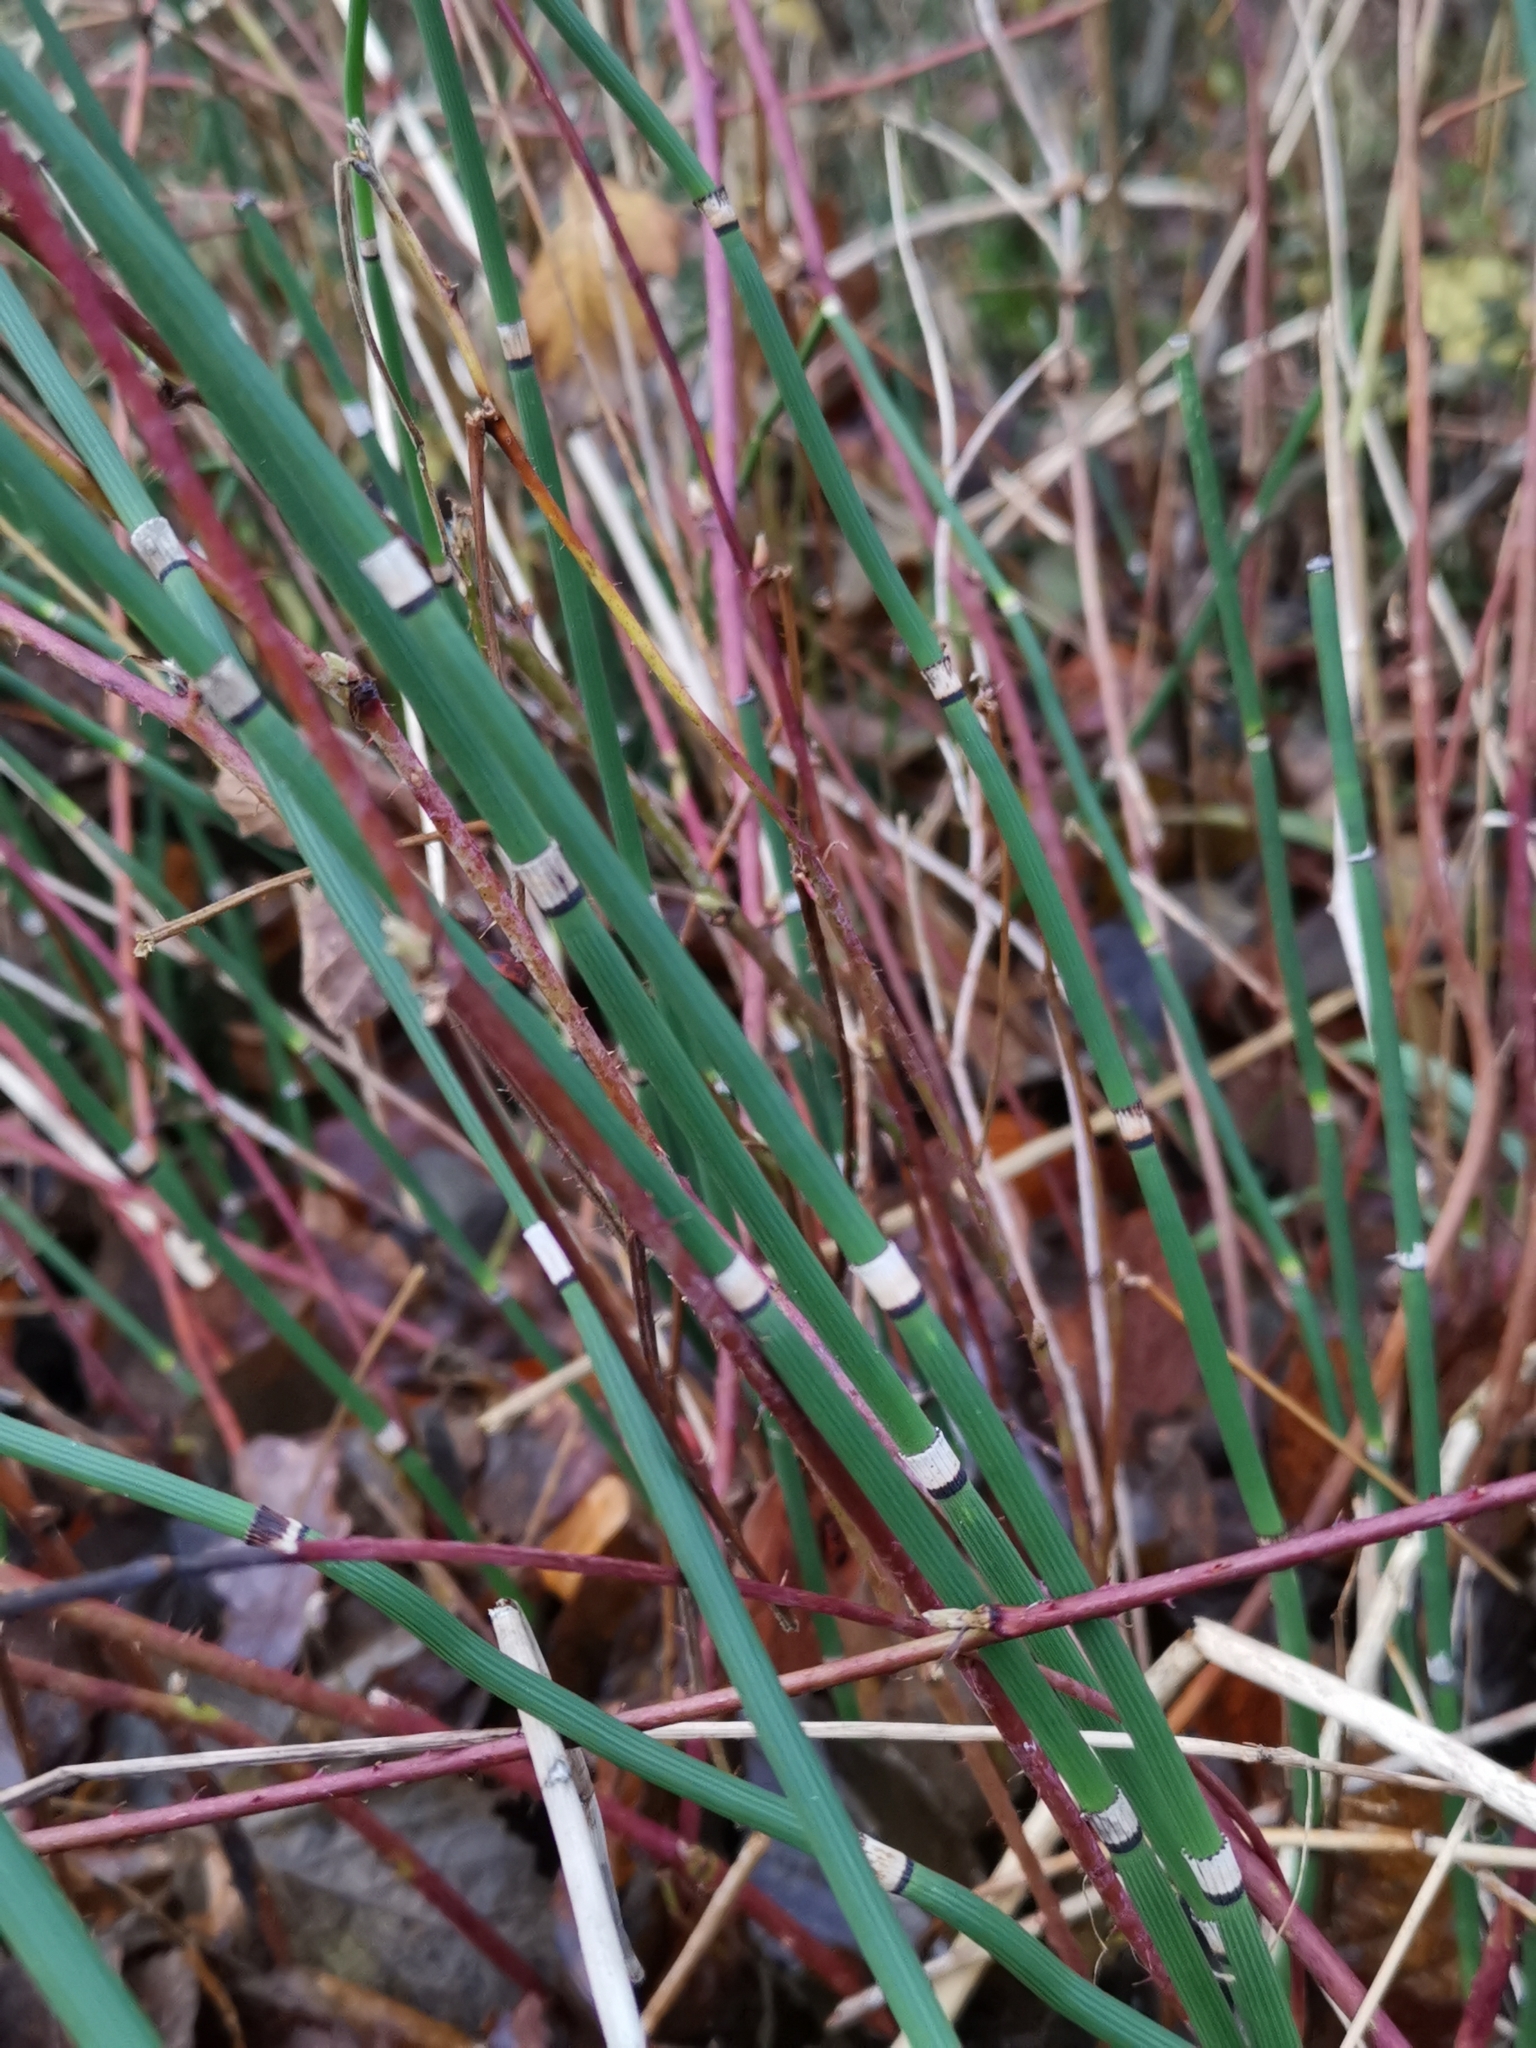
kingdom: Plantae
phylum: Tracheophyta
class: Polypodiopsida
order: Equisetales
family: Equisetaceae
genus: Equisetum
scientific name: Equisetum hyemale
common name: Rough horsetail
